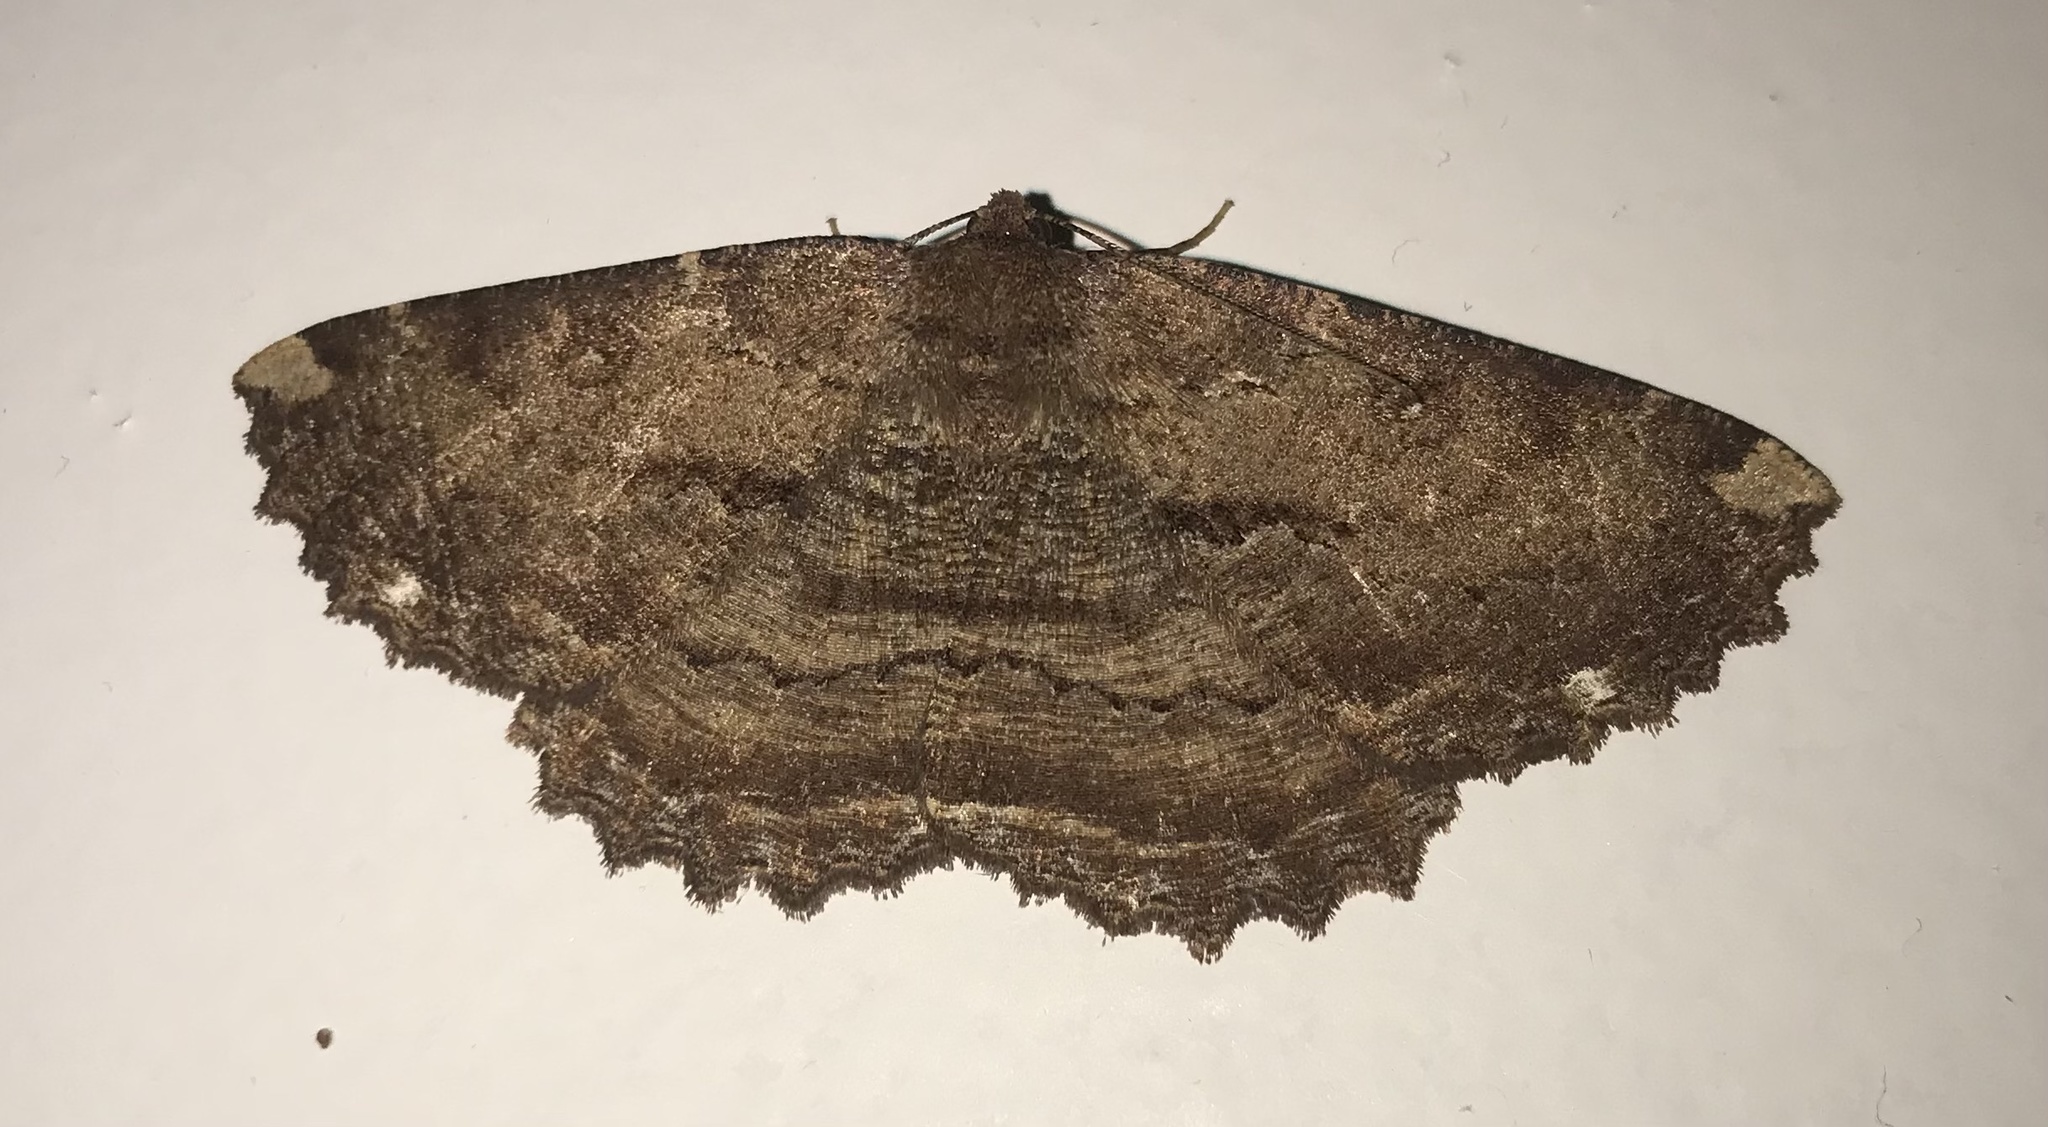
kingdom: Animalia
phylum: Arthropoda
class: Insecta
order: Lepidoptera
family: Geometridae
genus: Gellonia
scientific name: Gellonia dejectaria
